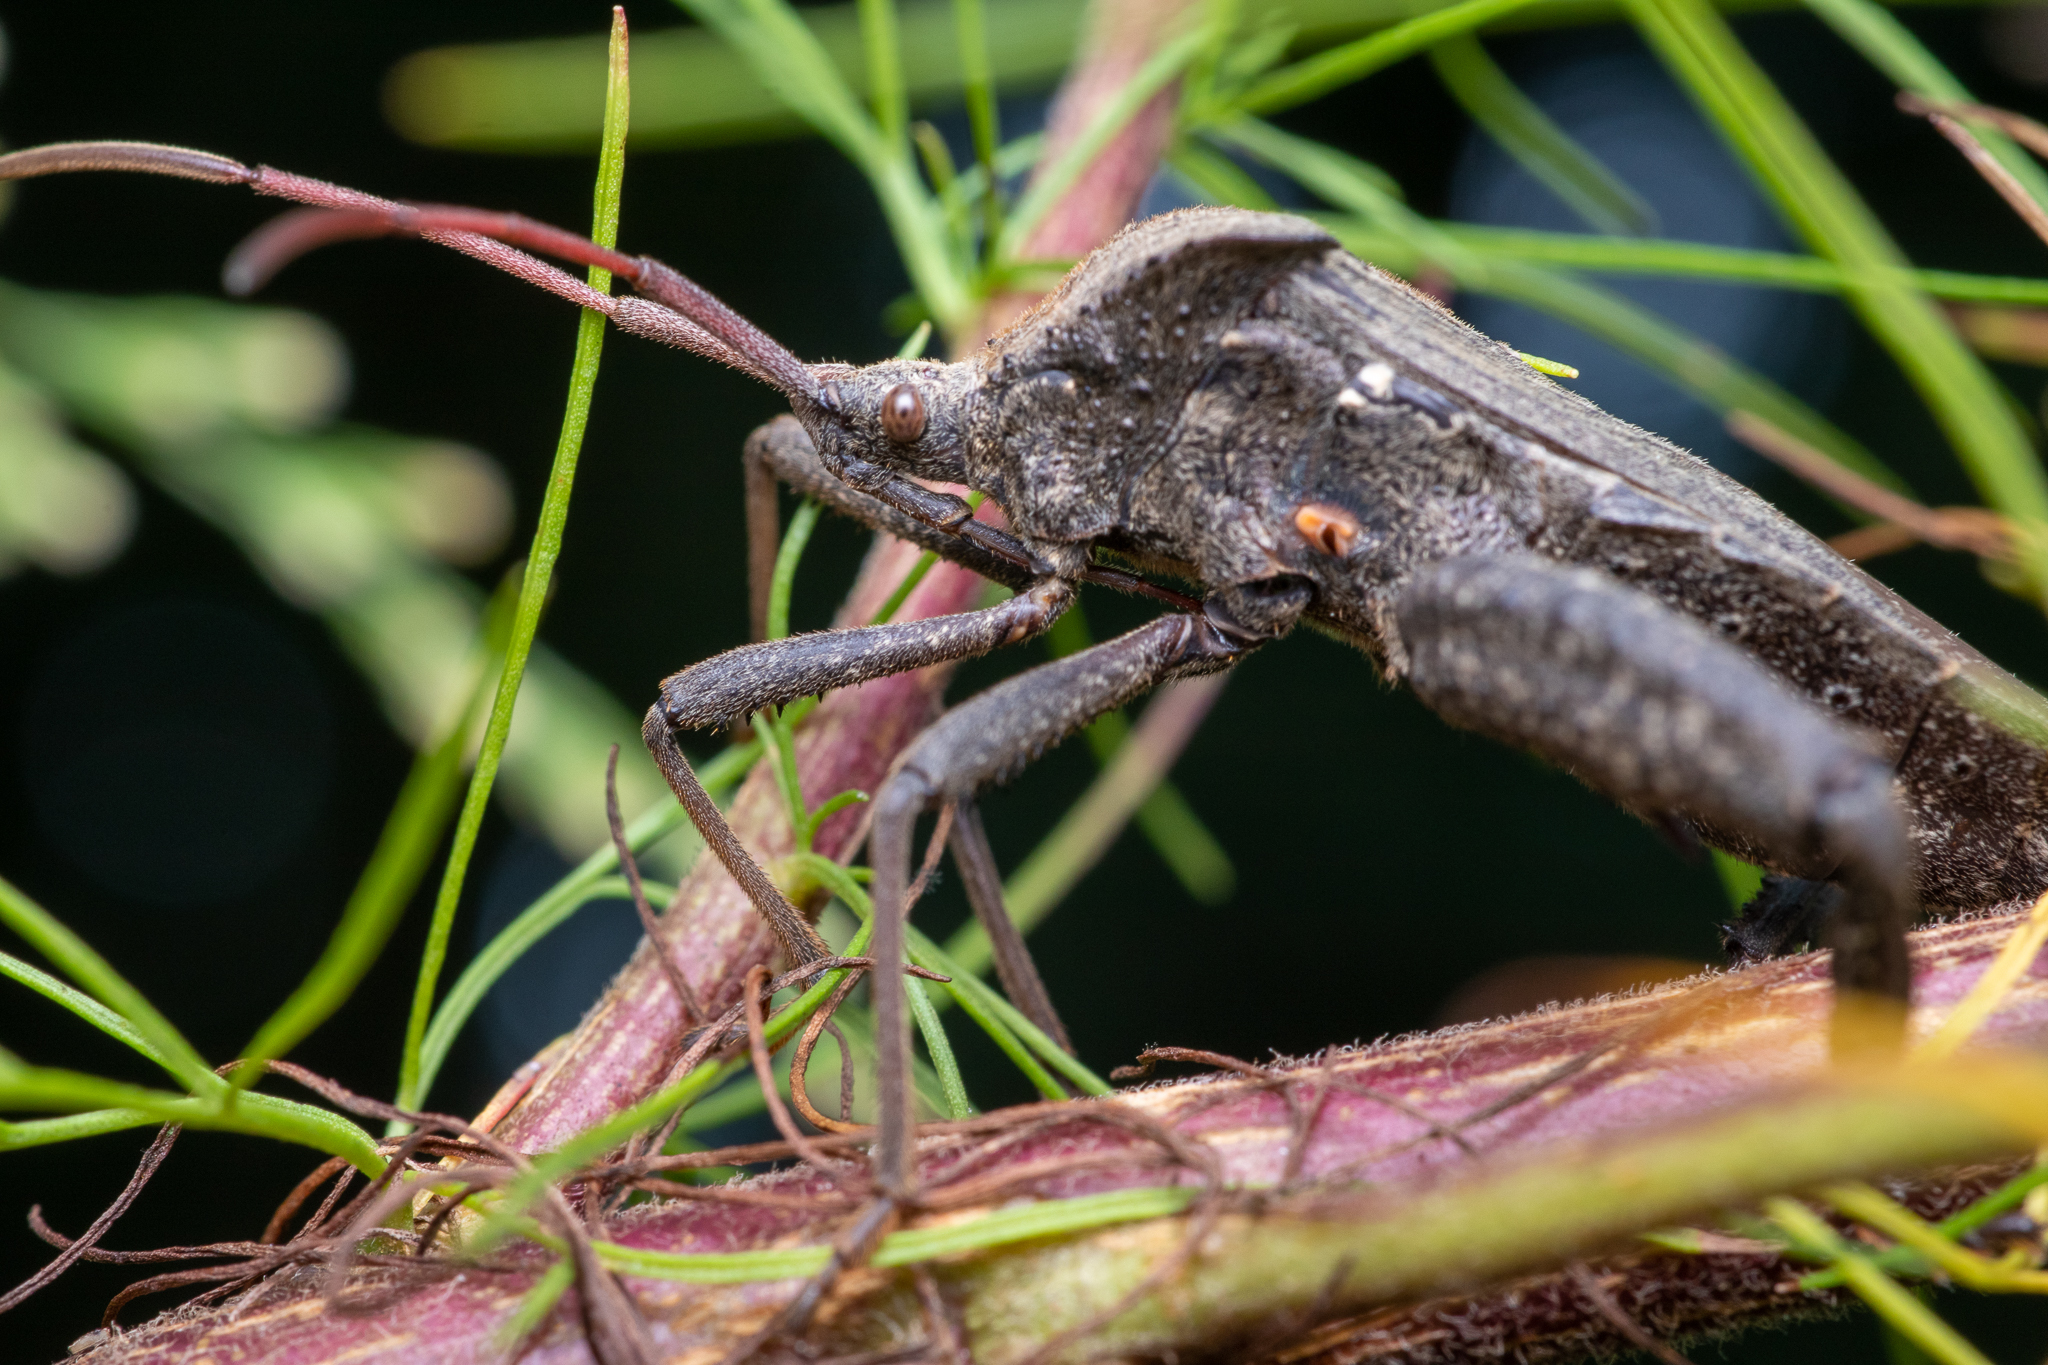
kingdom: Animalia
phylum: Arthropoda
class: Insecta
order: Hemiptera
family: Coreidae
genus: Acanthocephala
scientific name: Acanthocephala femorata
